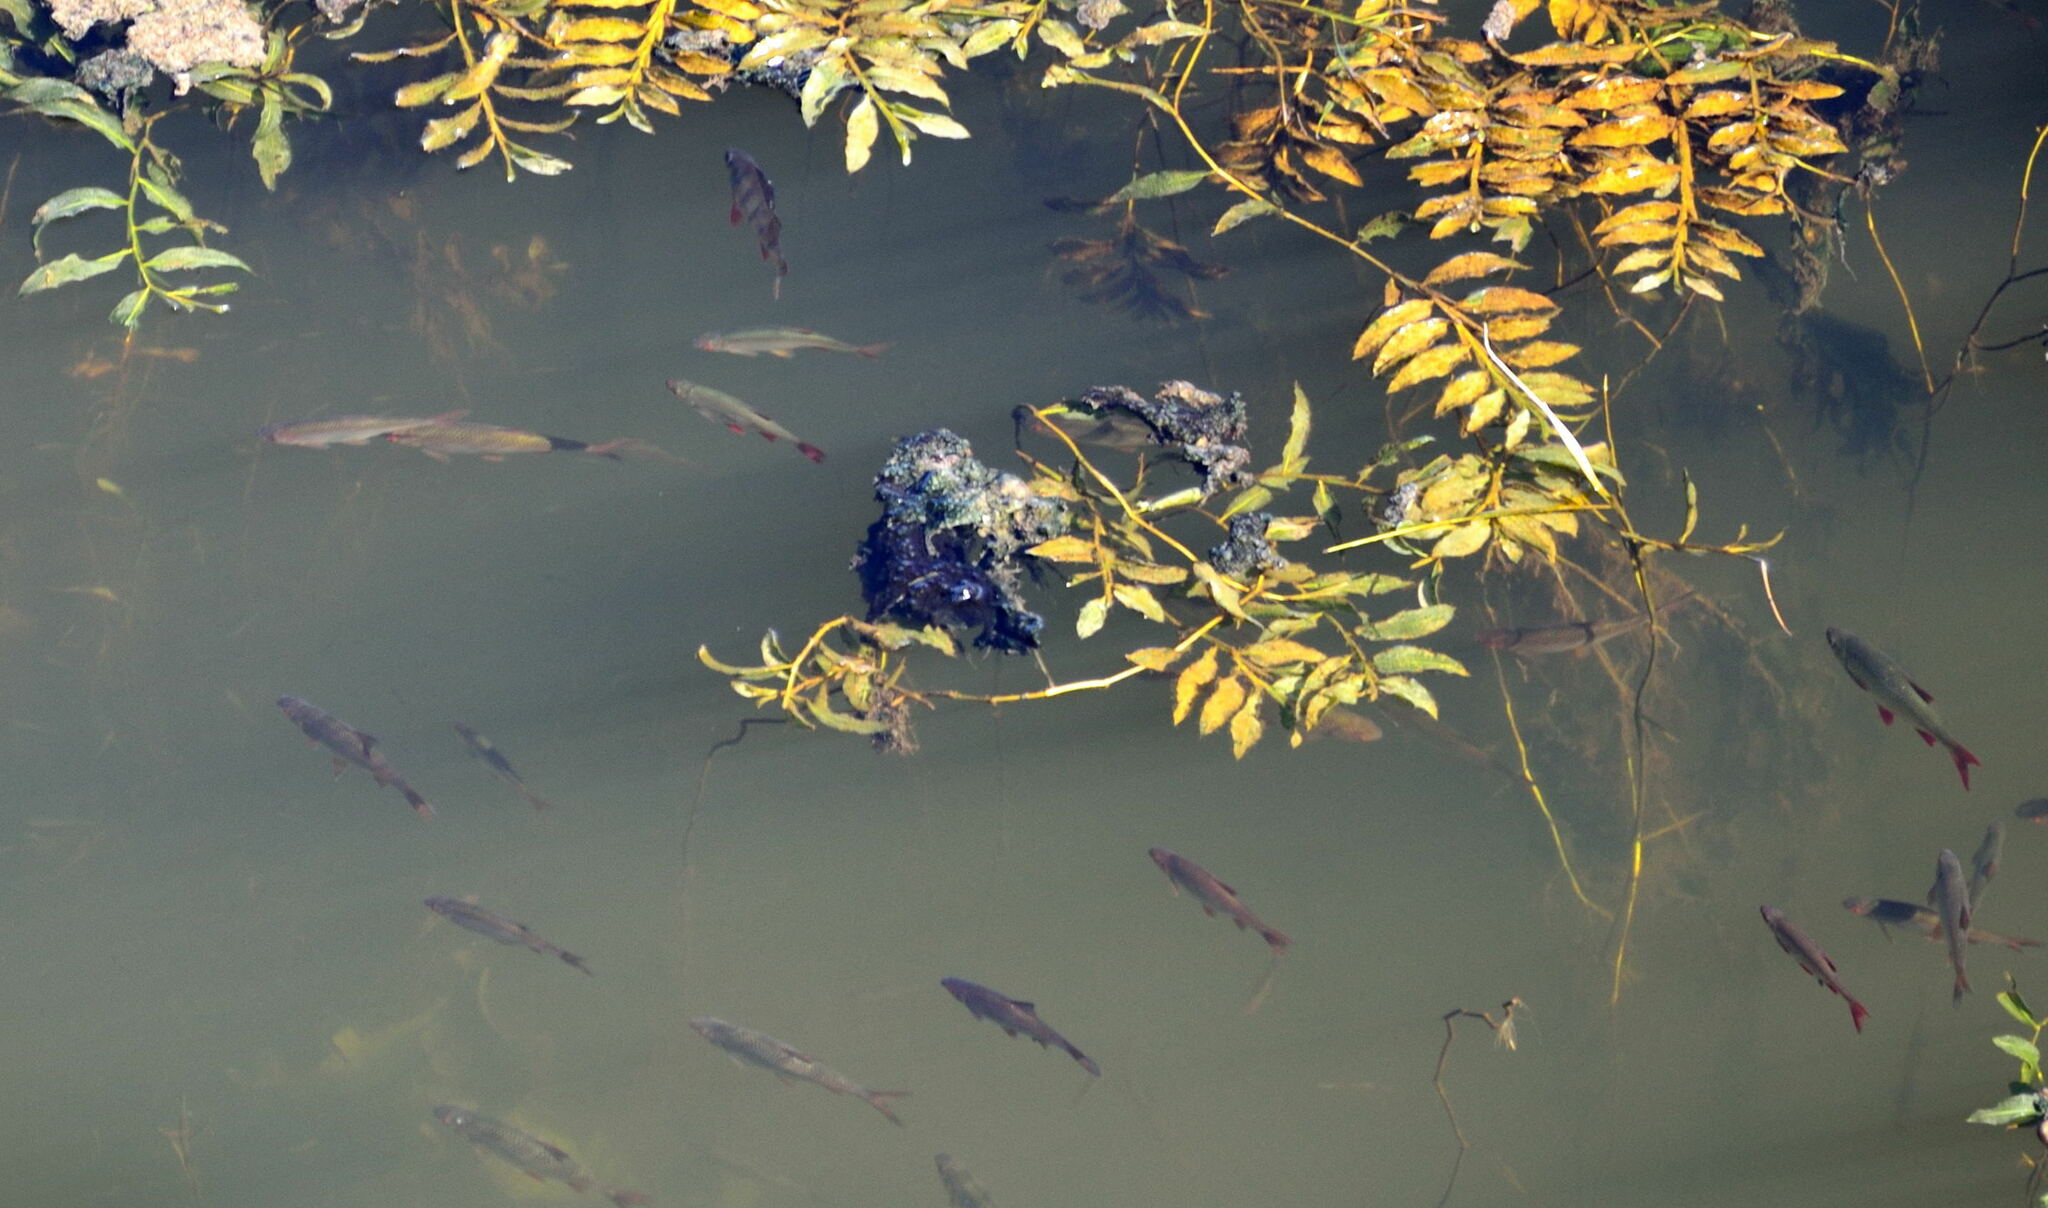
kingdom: Plantae
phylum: Tracheophyta
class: Liliopsida
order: Alismatales
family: Potamogetonaceae
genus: Potamogeton
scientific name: Potamogeton lucens
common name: Shining pondweed
